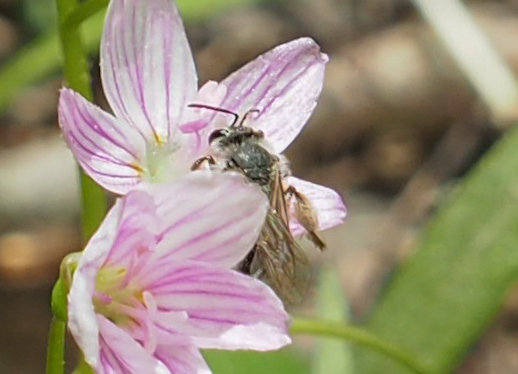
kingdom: Animalia
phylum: Arthropoda
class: Insecta
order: Hymenoptera
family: Andrenidae
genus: Andrena
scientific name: Andrena erigeniae
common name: Spring beauty miner
